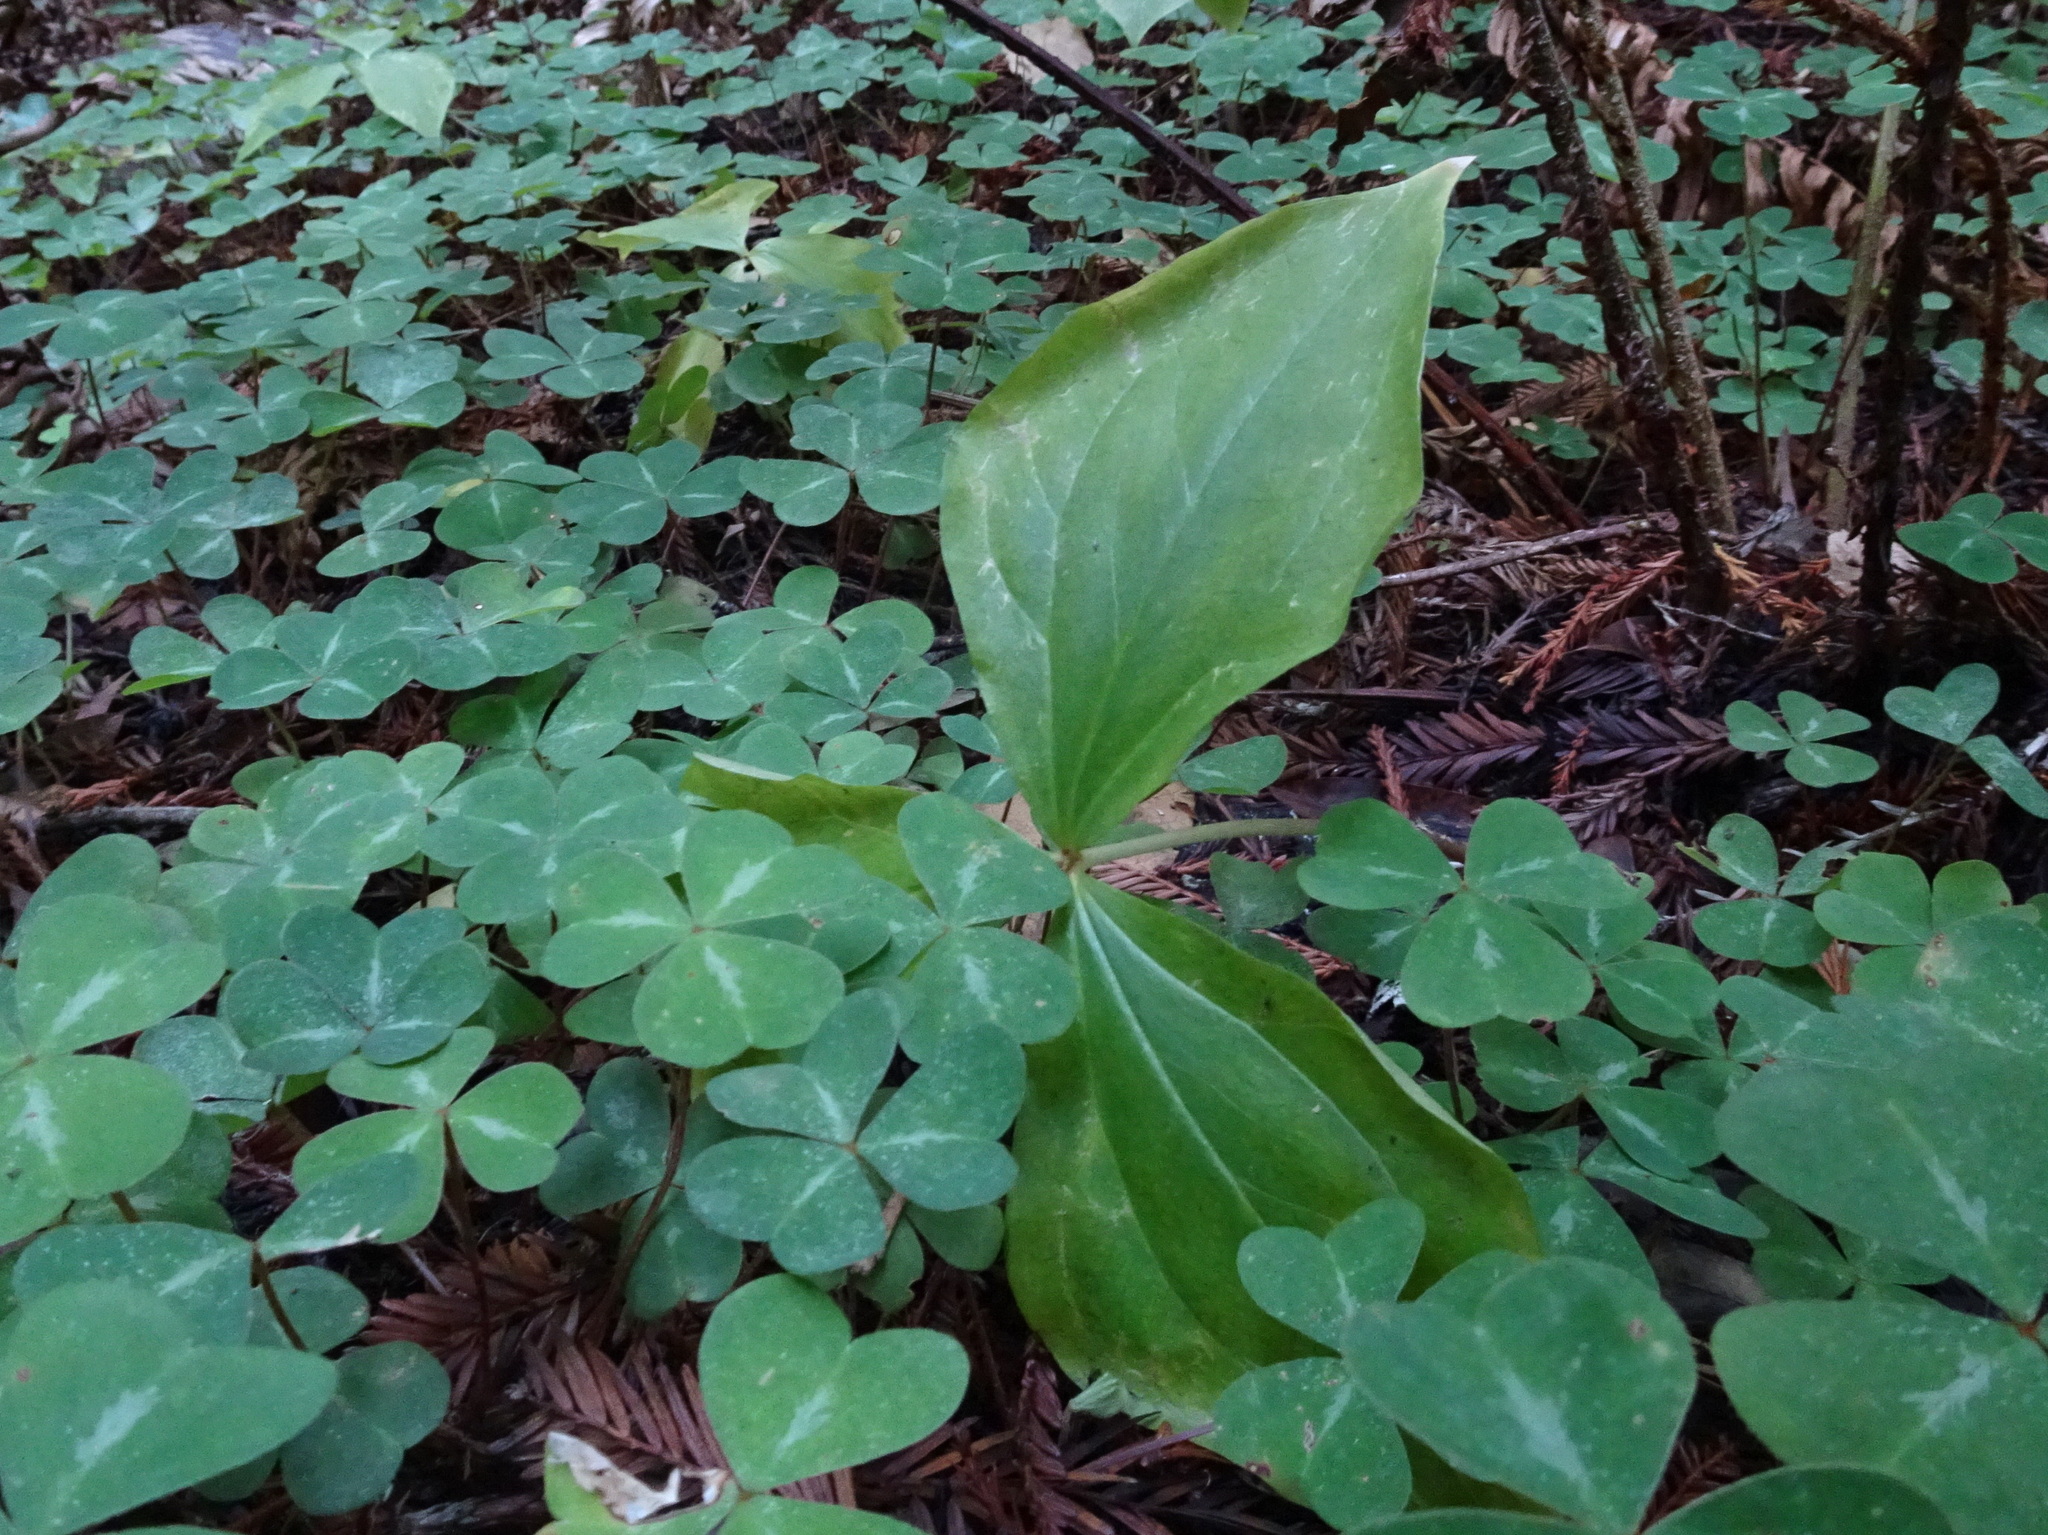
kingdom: Plantae
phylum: Tracheophyta
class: Liliopsida
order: Liliales
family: Melanthiaceae
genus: Trillium
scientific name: Trillium ovatum
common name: Pacific trillium
